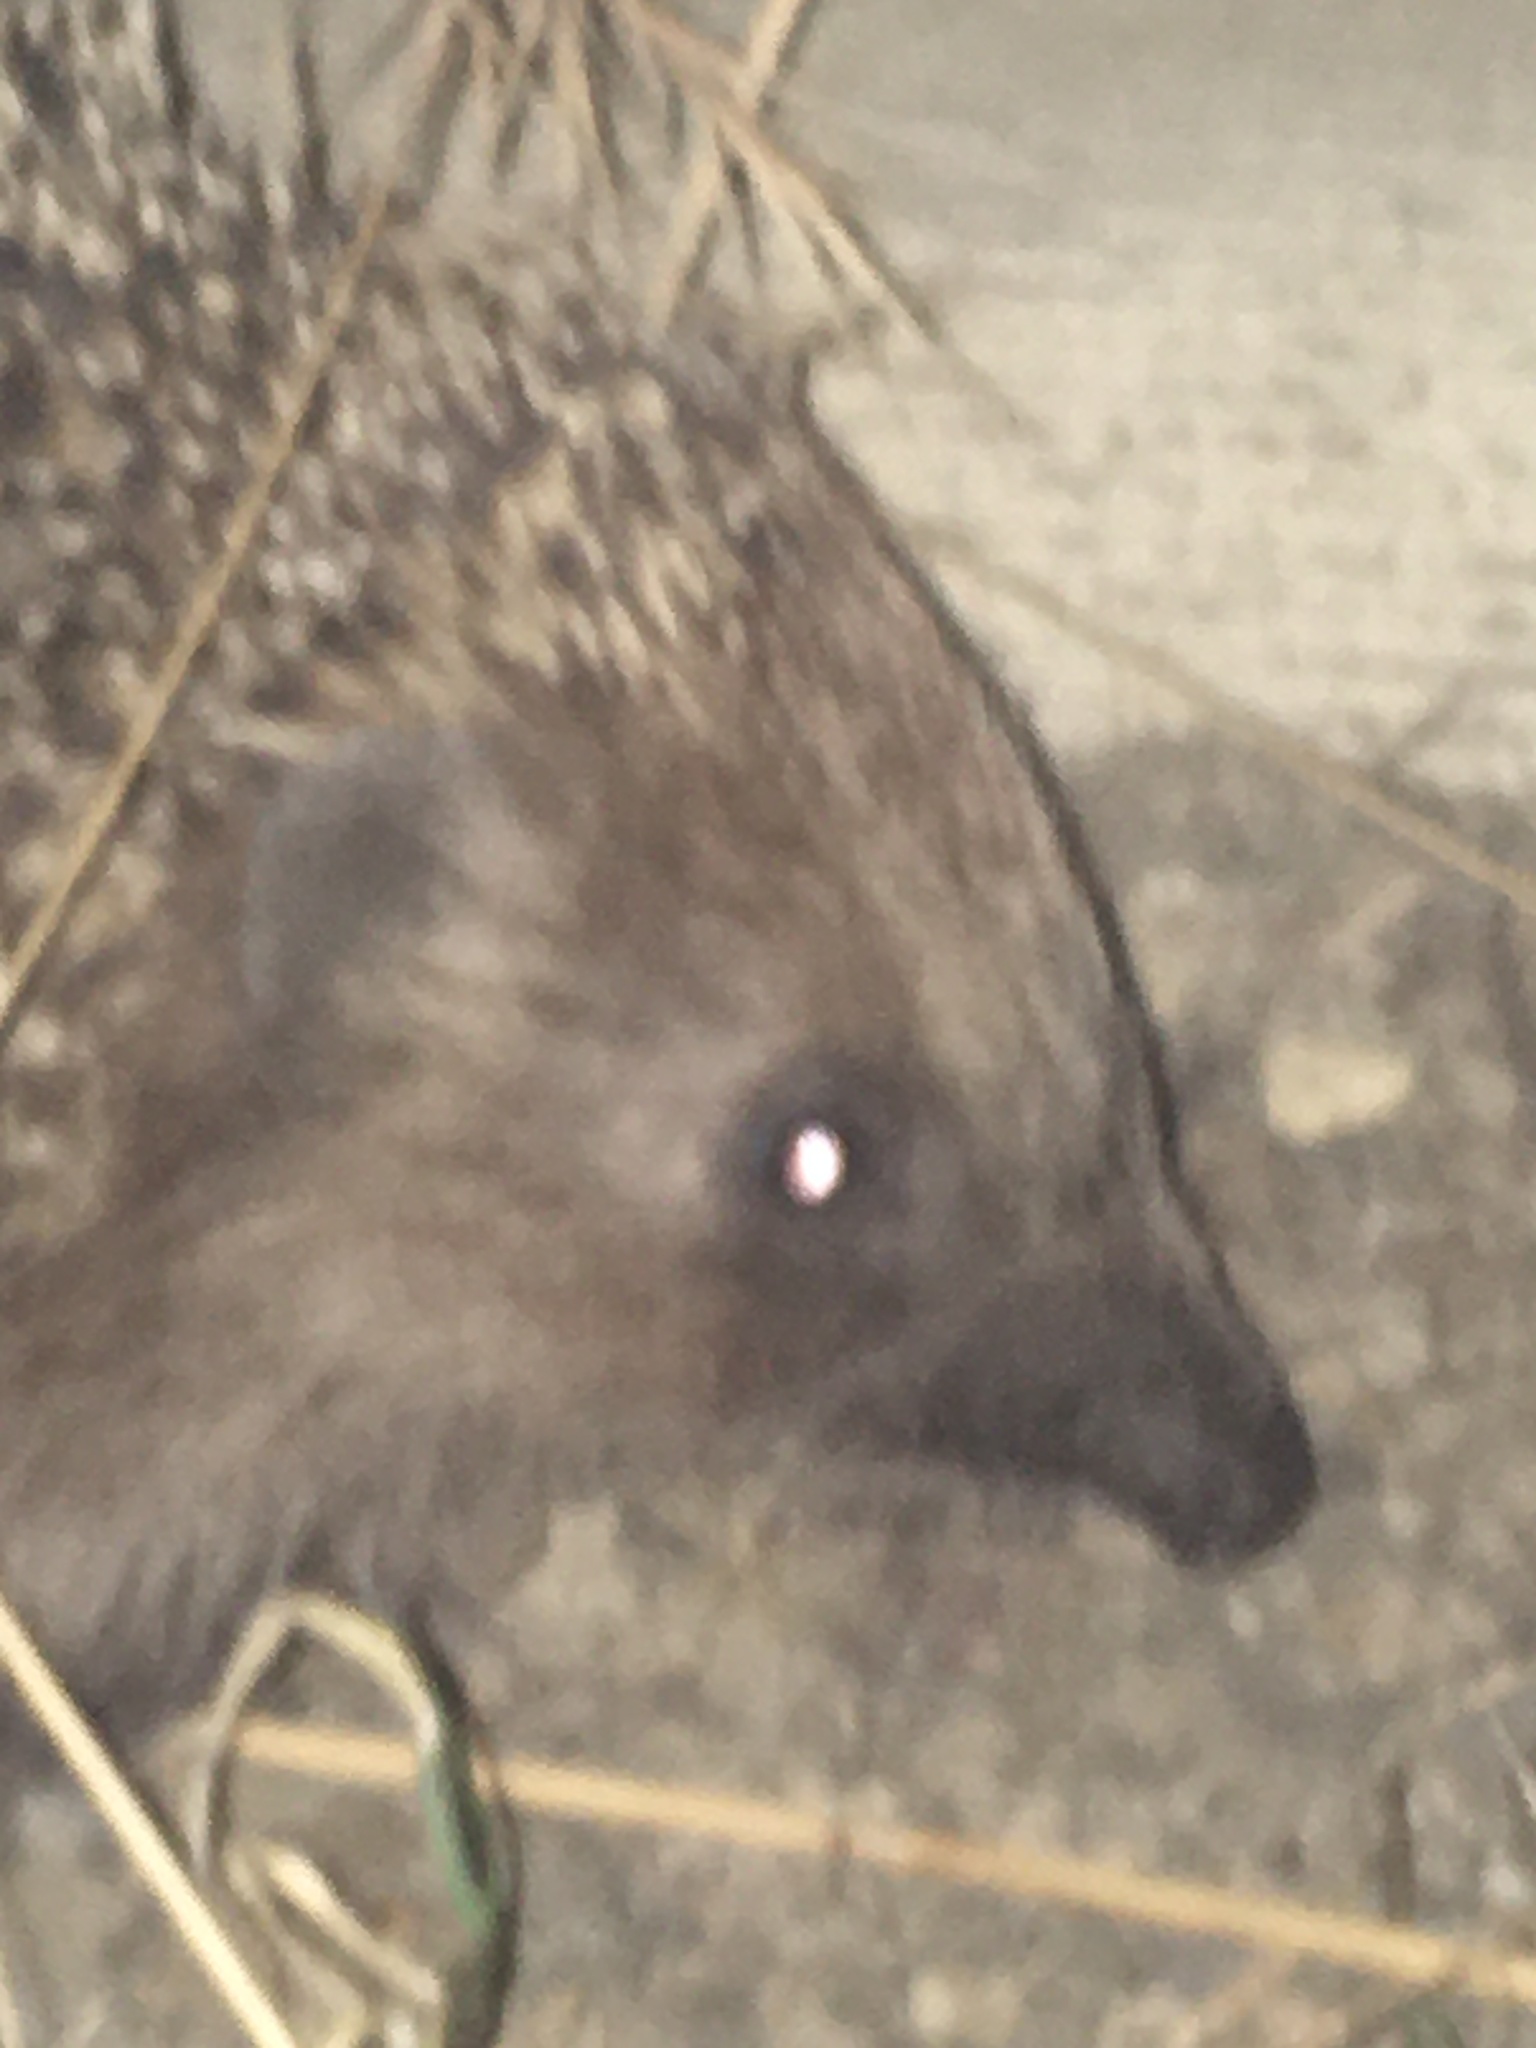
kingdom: Animalia
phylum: Chordata
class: Mammalia
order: Erinaceomorpha
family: Erinaceidae
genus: Erinaceus
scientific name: Erinaceus roumanicus
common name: Northern white-breasted hedgehog
